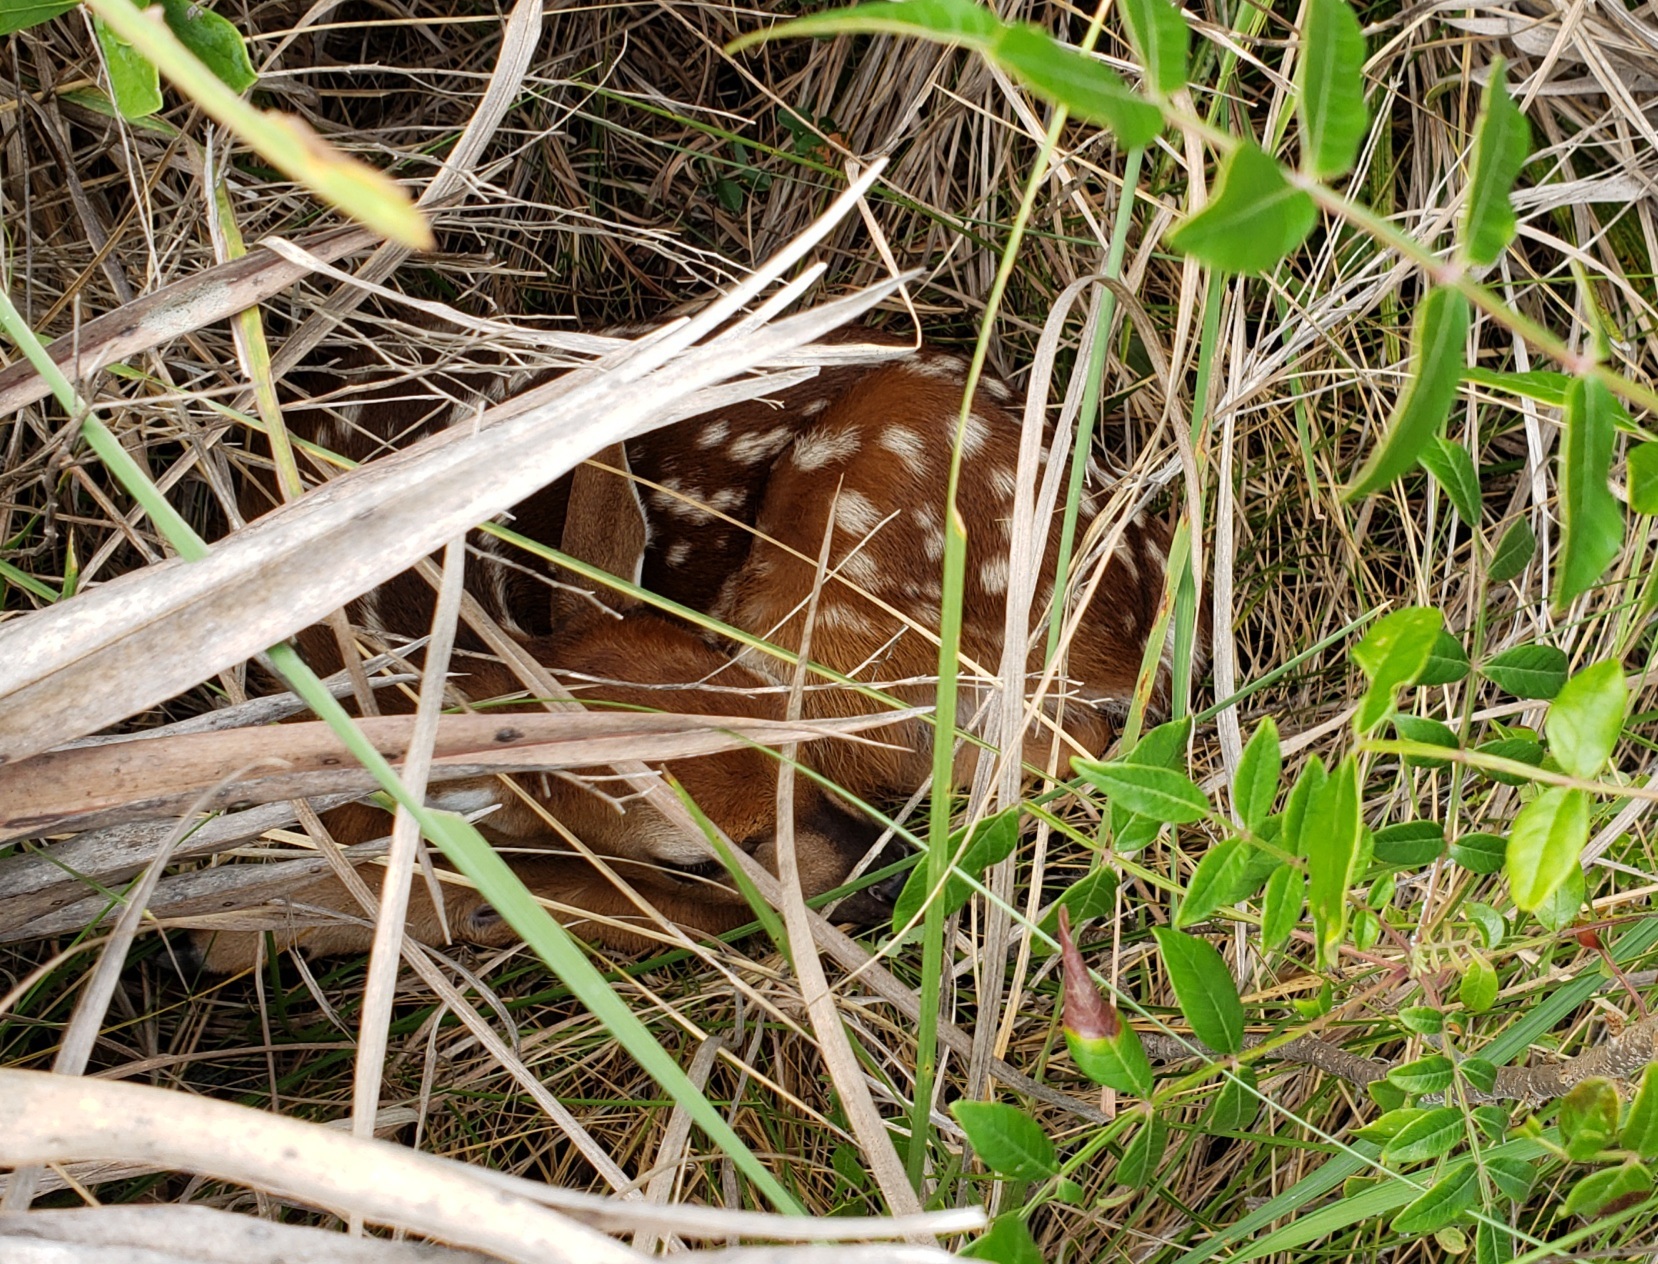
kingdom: Animalia
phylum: Chordata
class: Mammalia
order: Artiodactyla
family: Cervidae
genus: Odocoileus
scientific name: Odocoileus virginianus
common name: White-tailed deer
